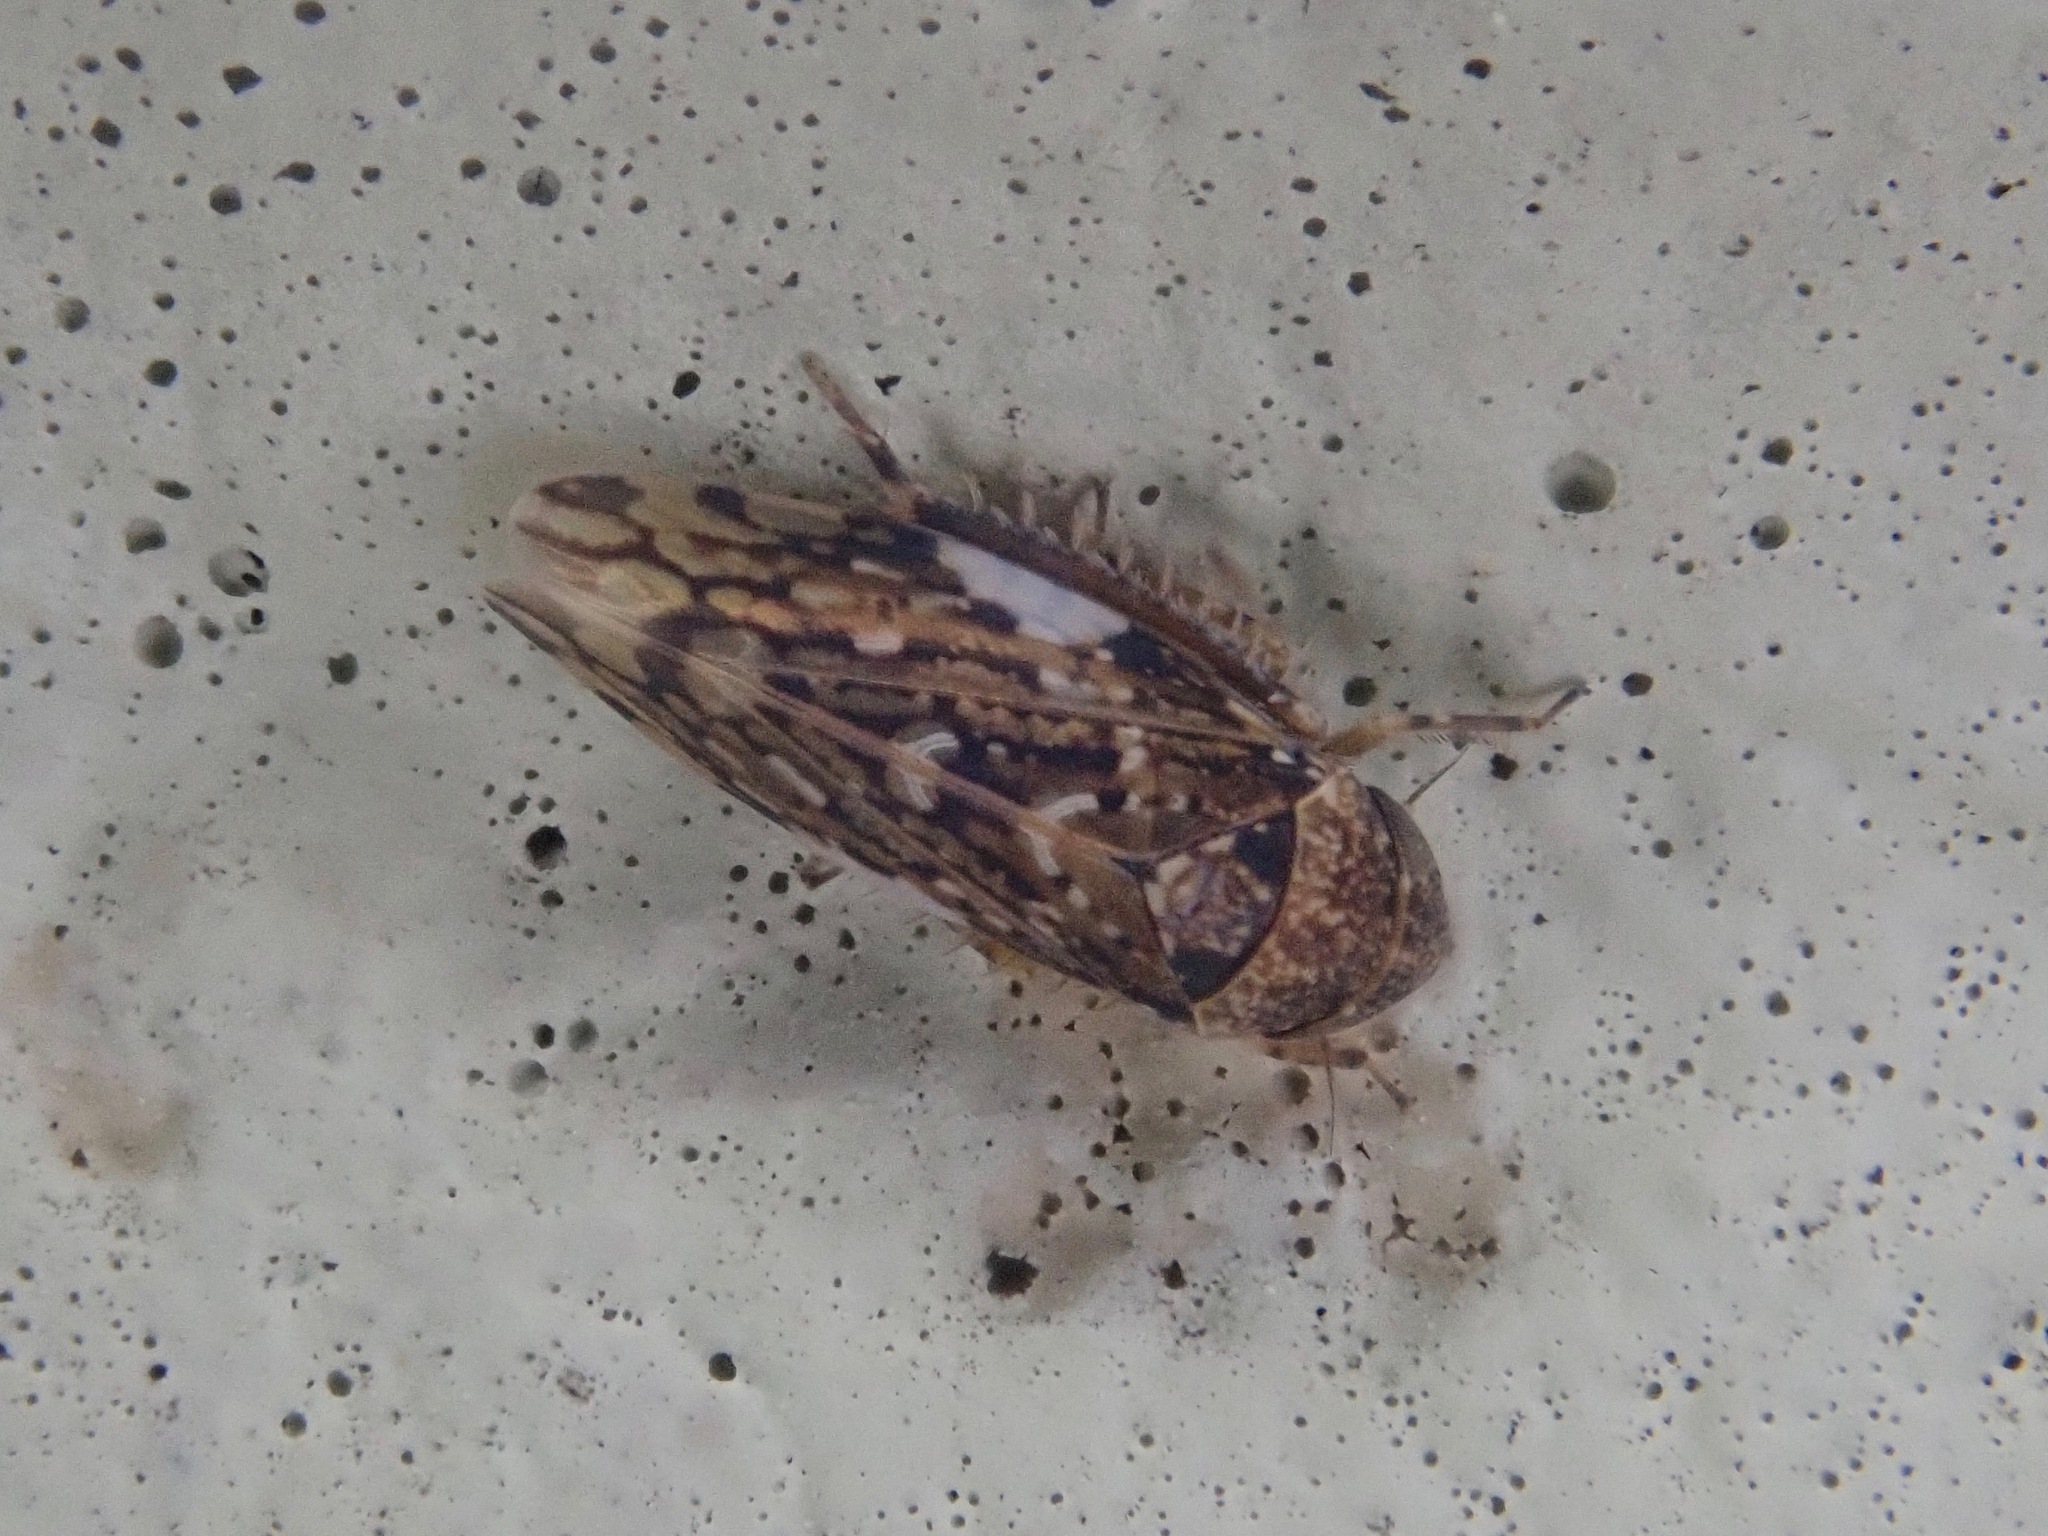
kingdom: Animalia
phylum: Arthropoda
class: Insecta
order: Hemiptera
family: Cicadellidae
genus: Xestocephalus
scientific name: Xestocephalus tessellatus
